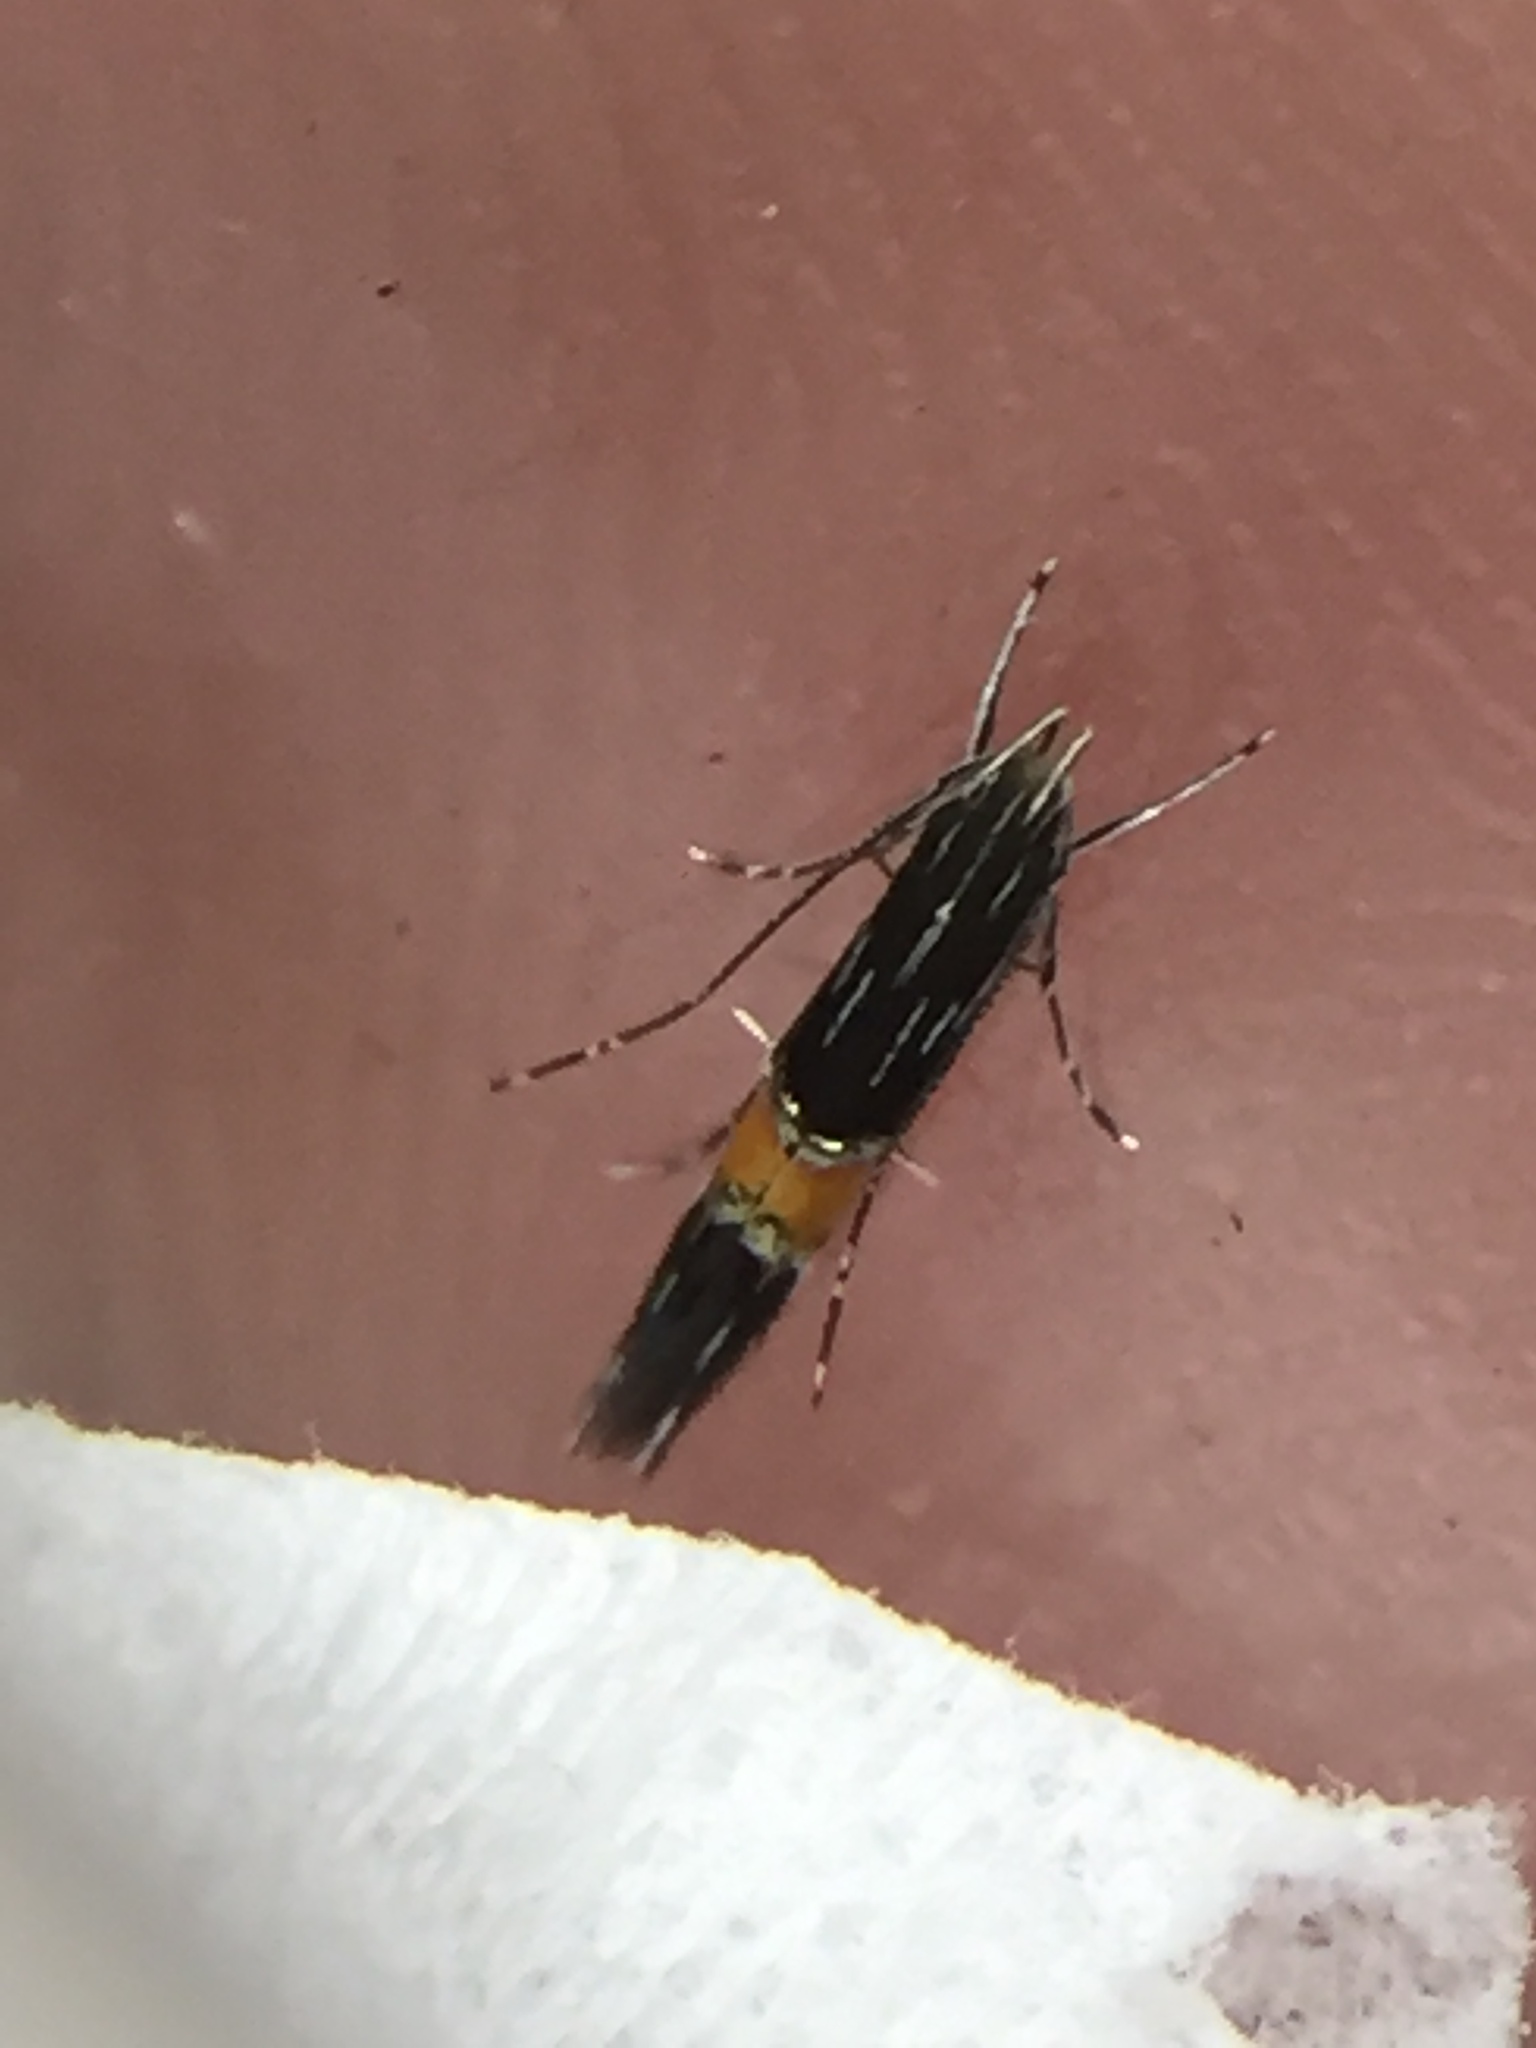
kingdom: Animalia
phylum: Arthropoda
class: Insecta
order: Lepidoptera
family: Cosmopterigidae
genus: Cosmopterix
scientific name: Cosmopterix attenuatella
